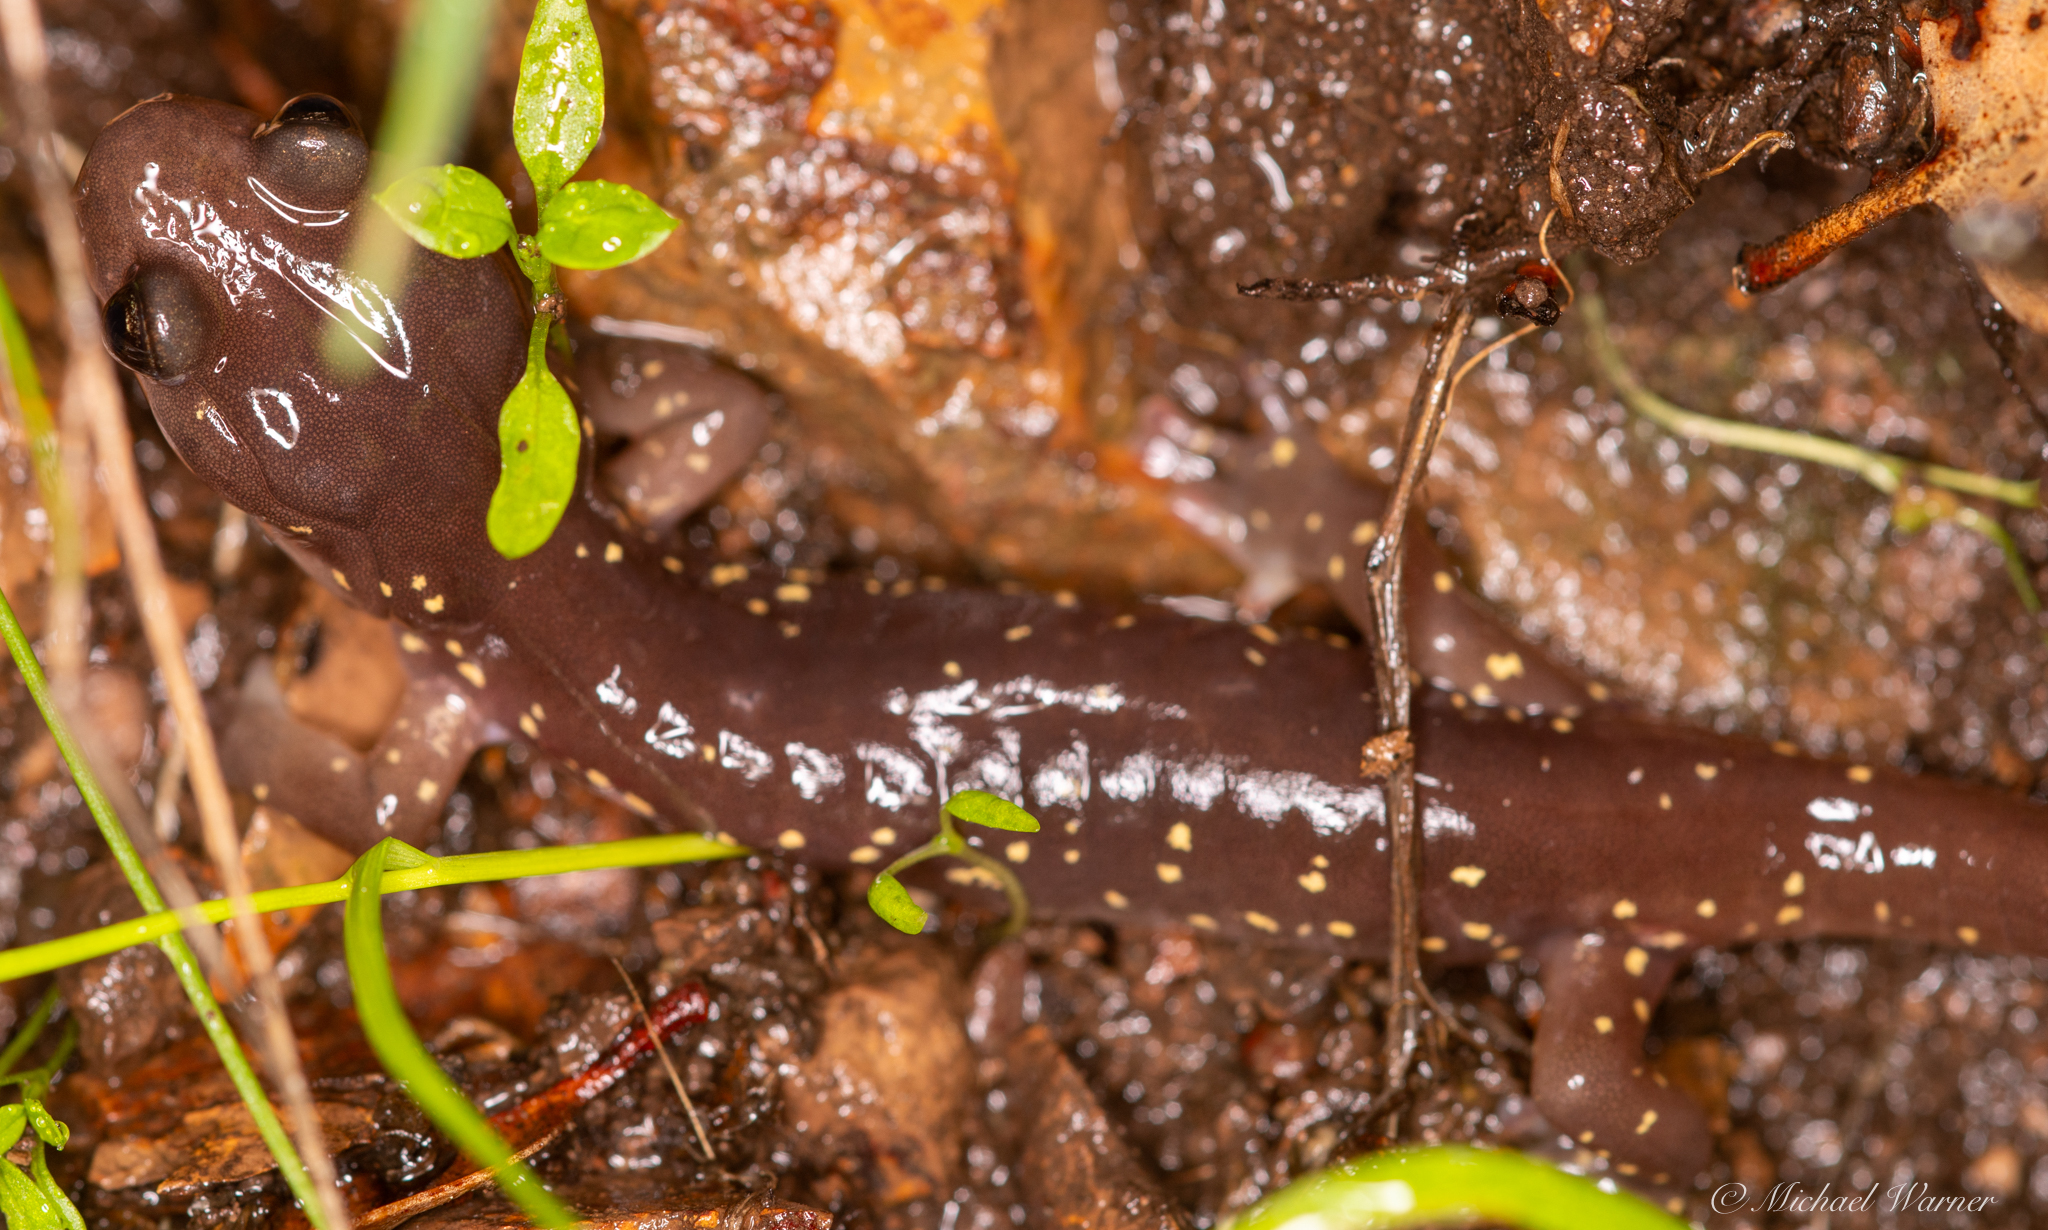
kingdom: Animalia
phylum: Chordata
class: Amphibia
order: Caudata
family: Plethodontidae
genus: Aneides
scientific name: Aneides lugubris
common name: Arboreal salamander
